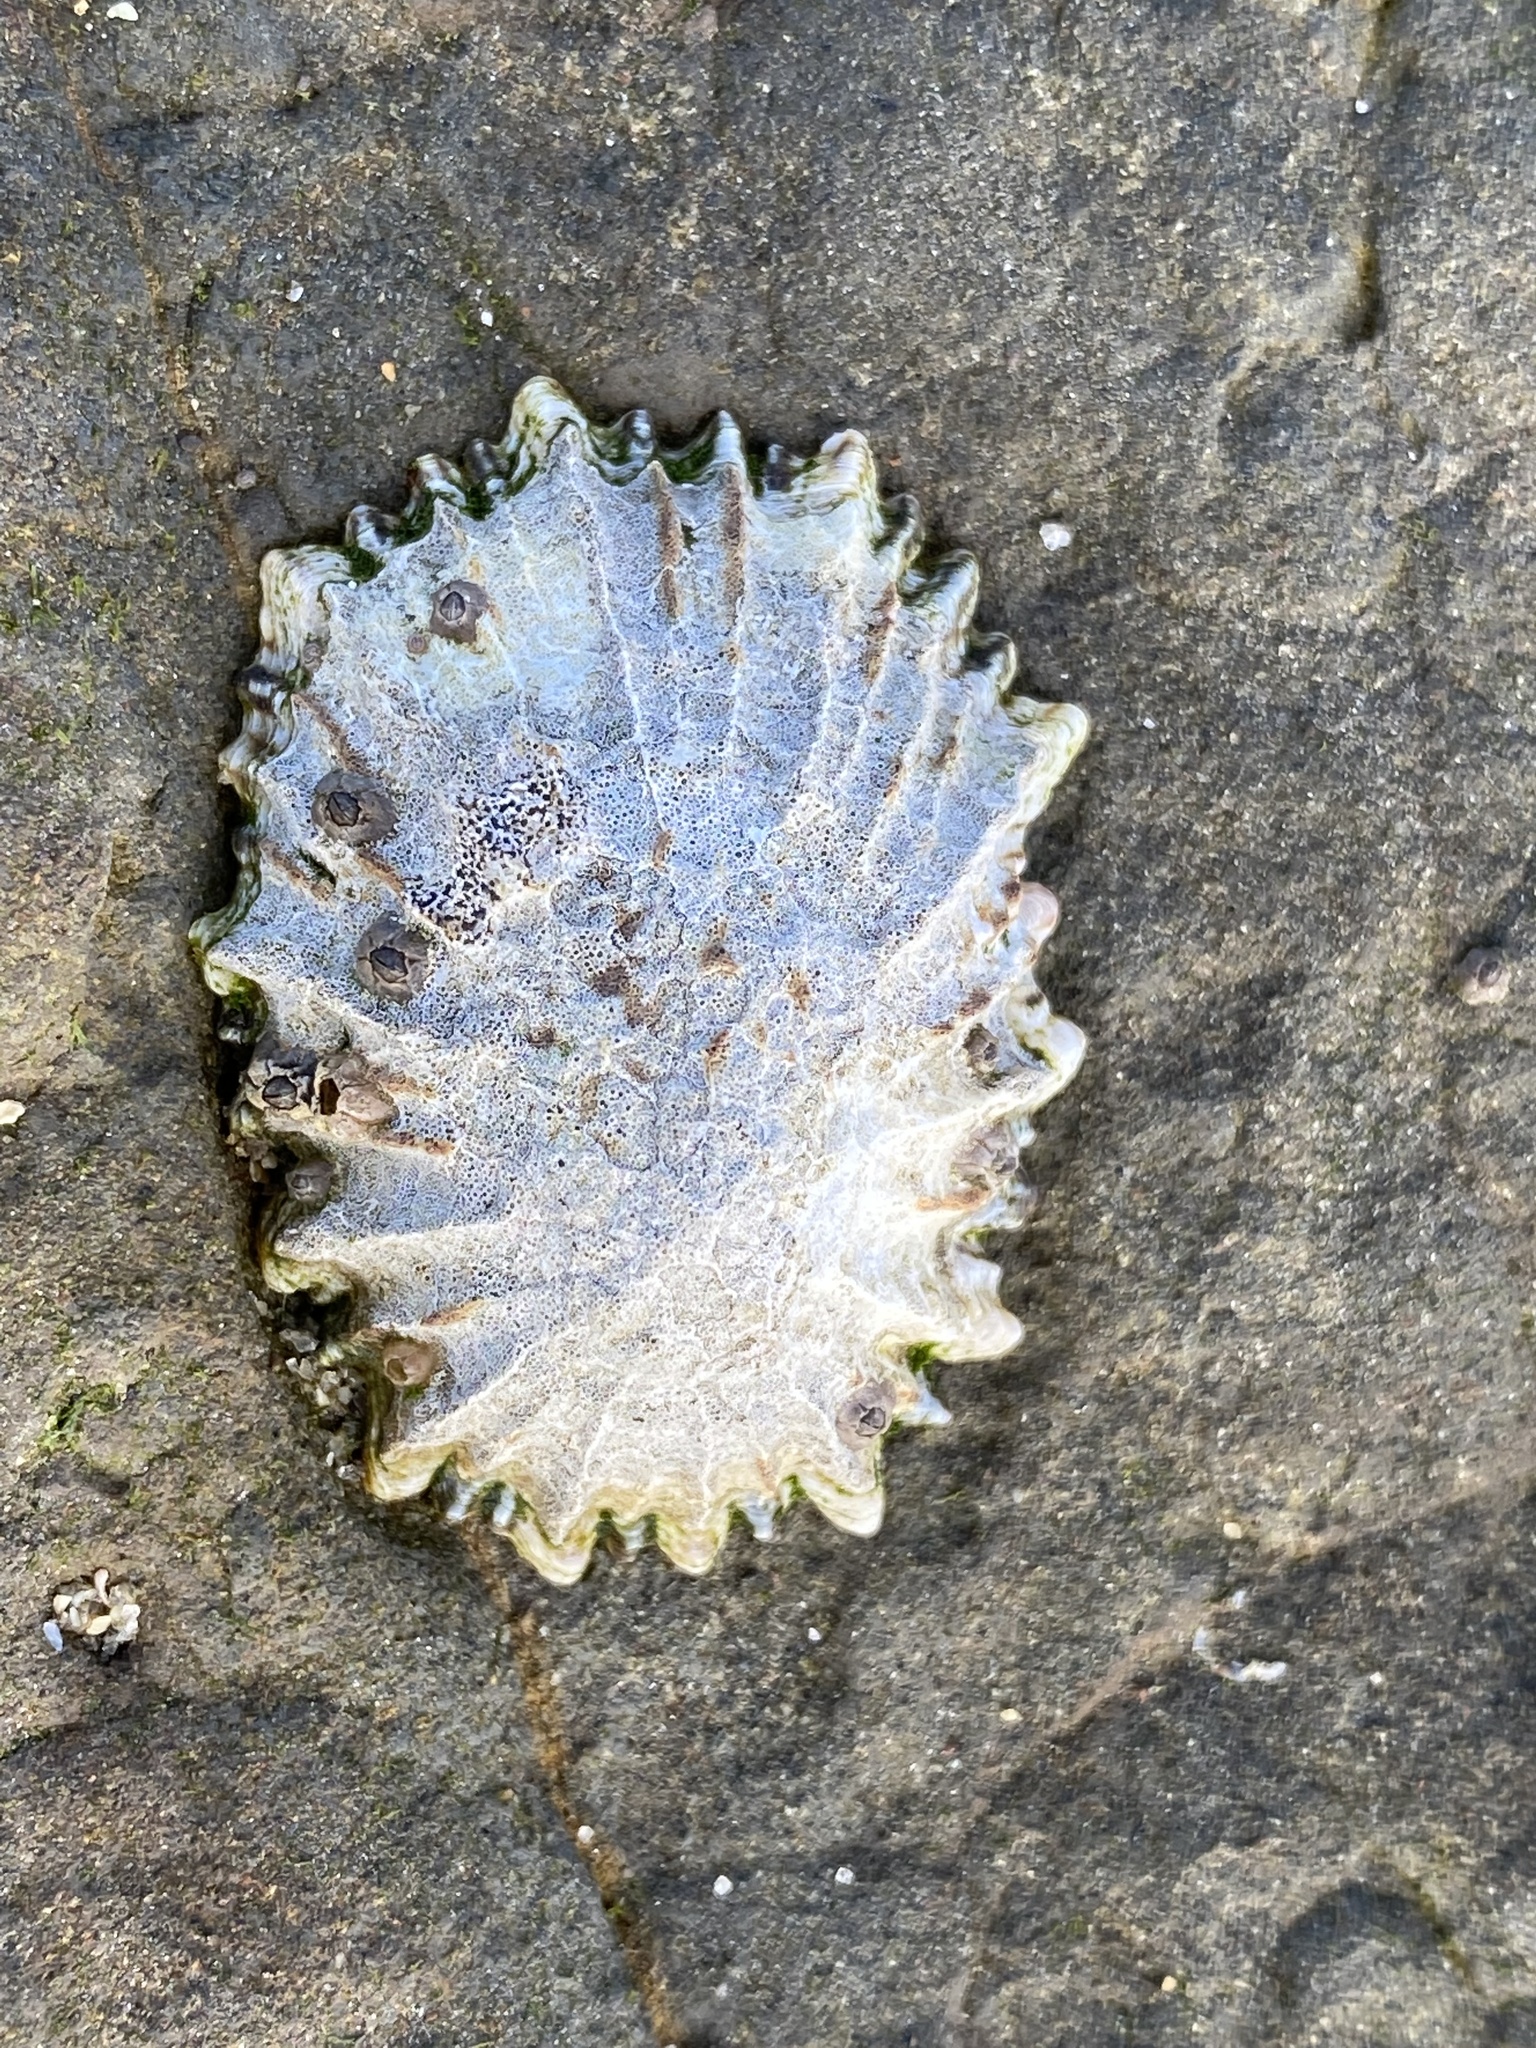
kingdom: Animalia
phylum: Mollusca
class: Gastropoda
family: Lottiidae
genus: Lottia
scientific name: Lottia scabra
